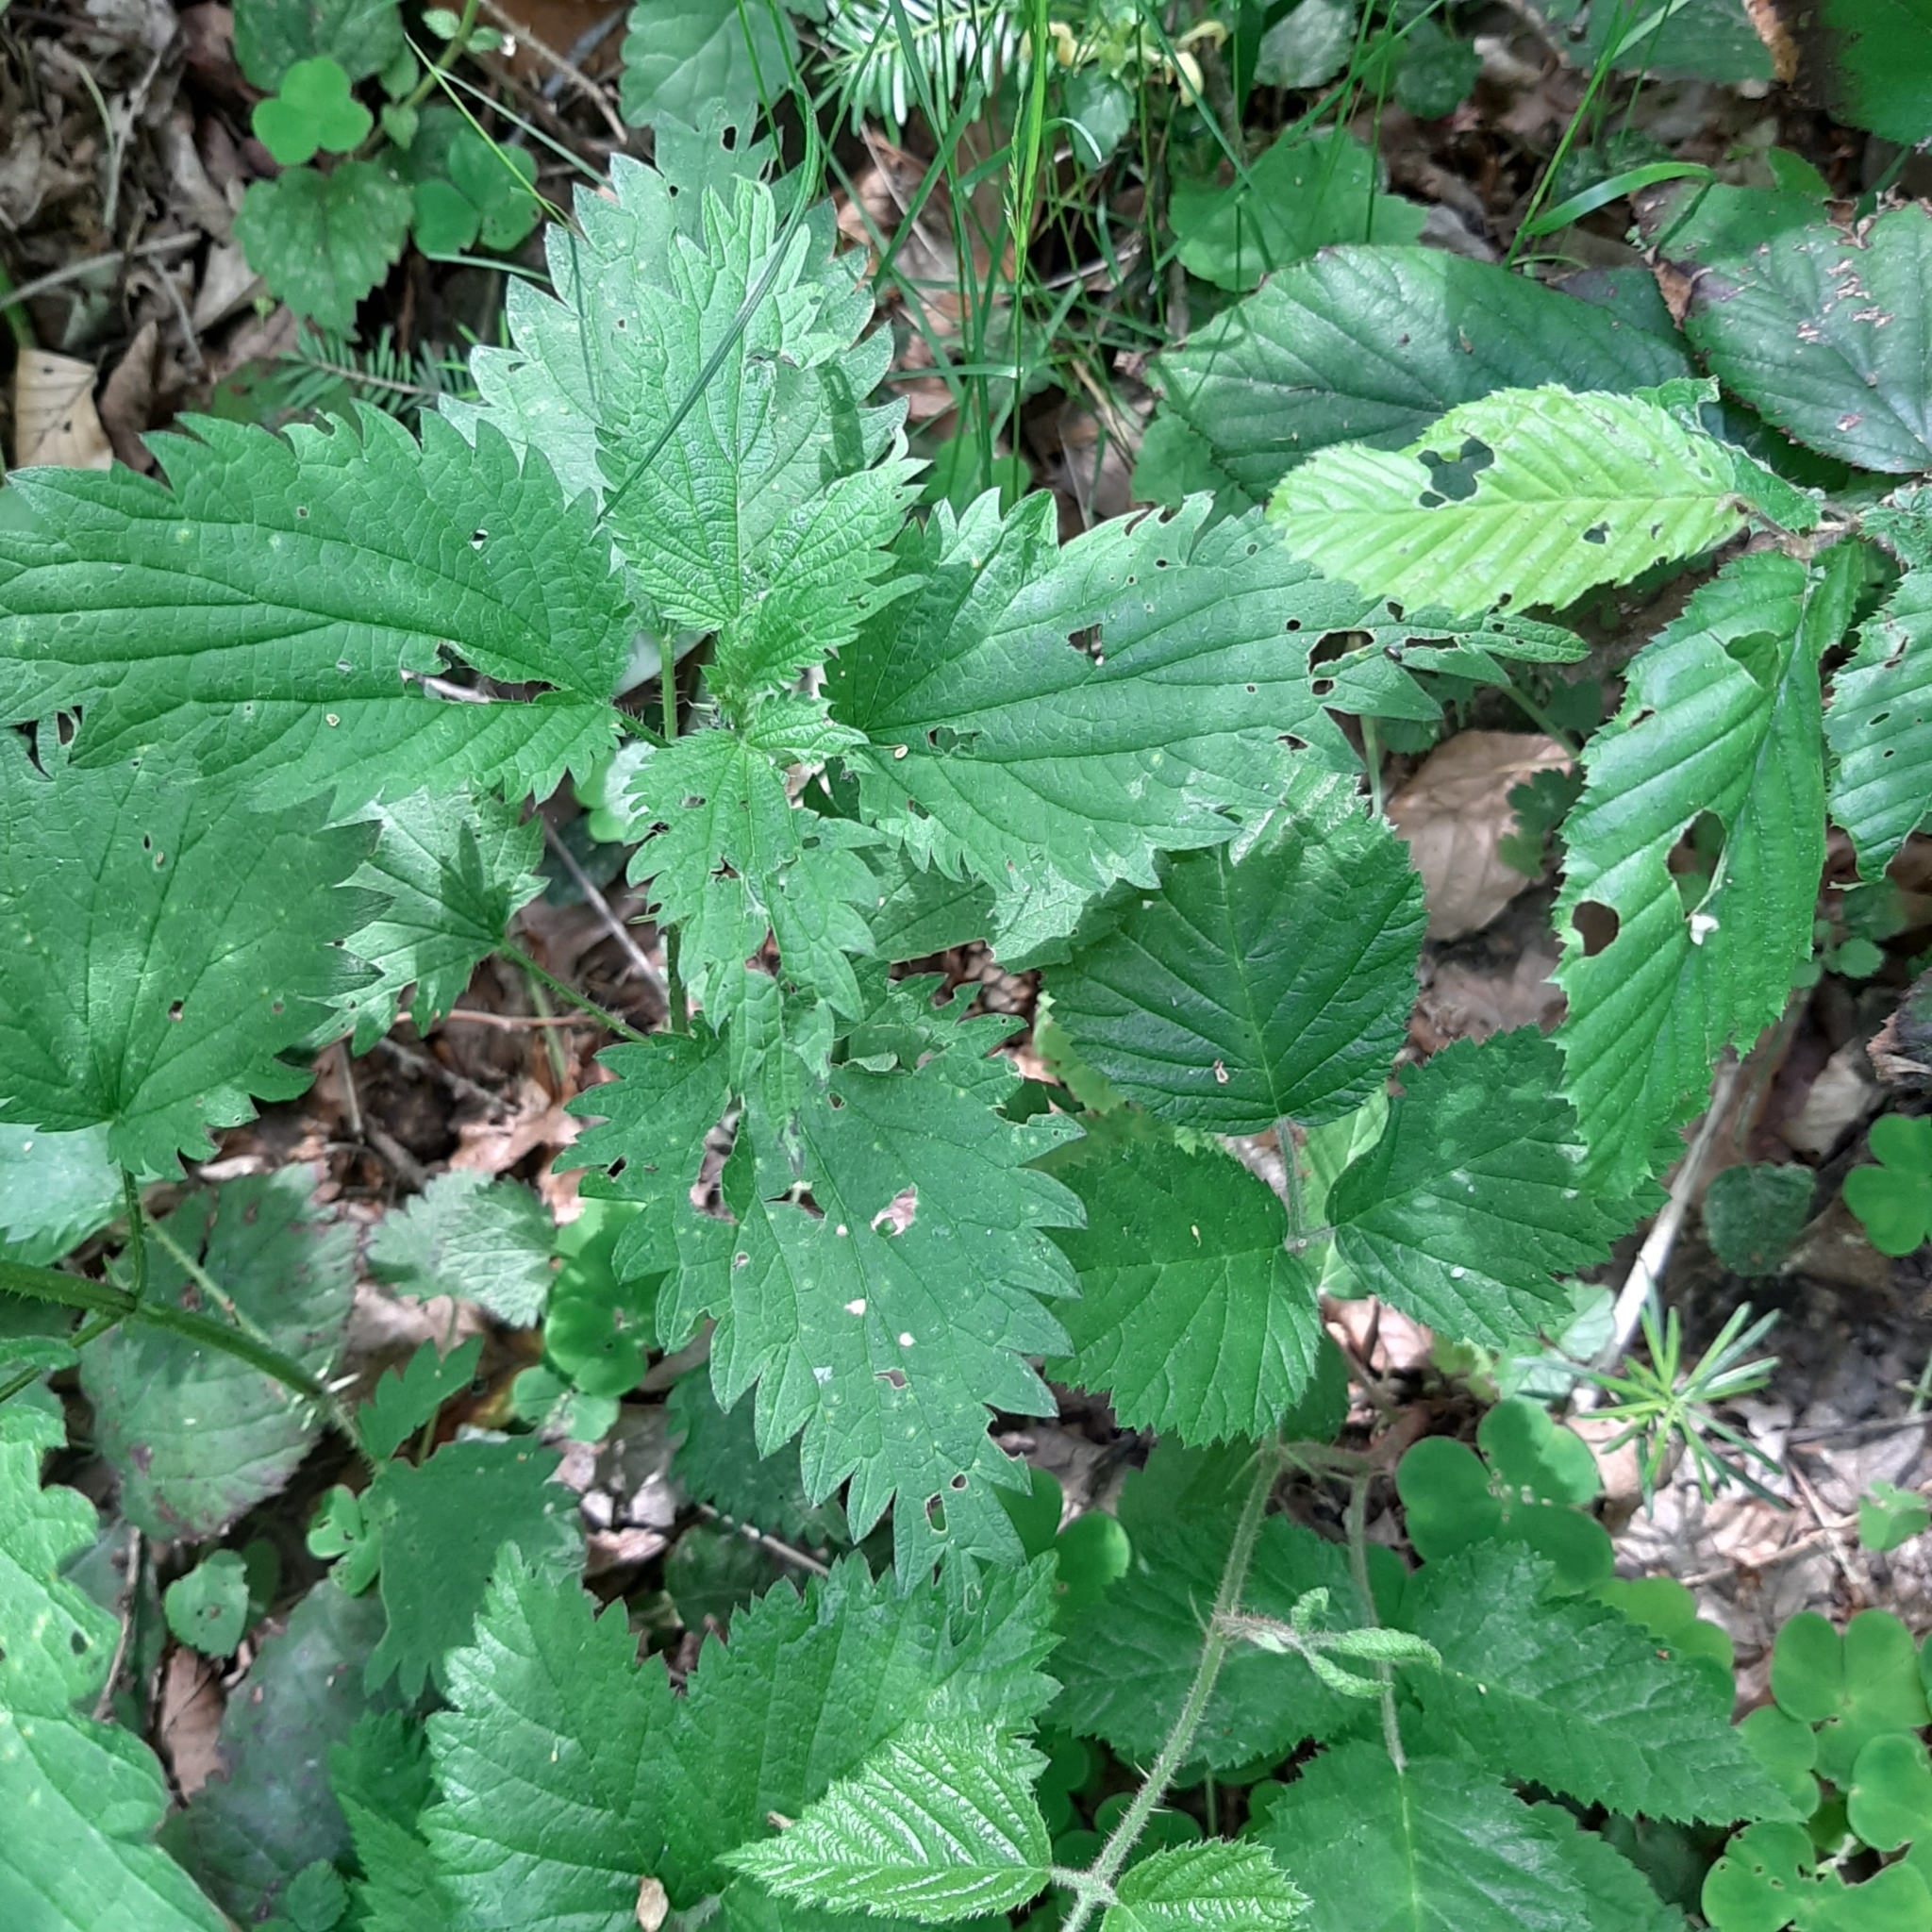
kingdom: Plantae
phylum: Tracheophyta
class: Magnoliopsida
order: Rosales
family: Urticaceae
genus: Urtica
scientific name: Urtica dioica
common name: Common nettle
